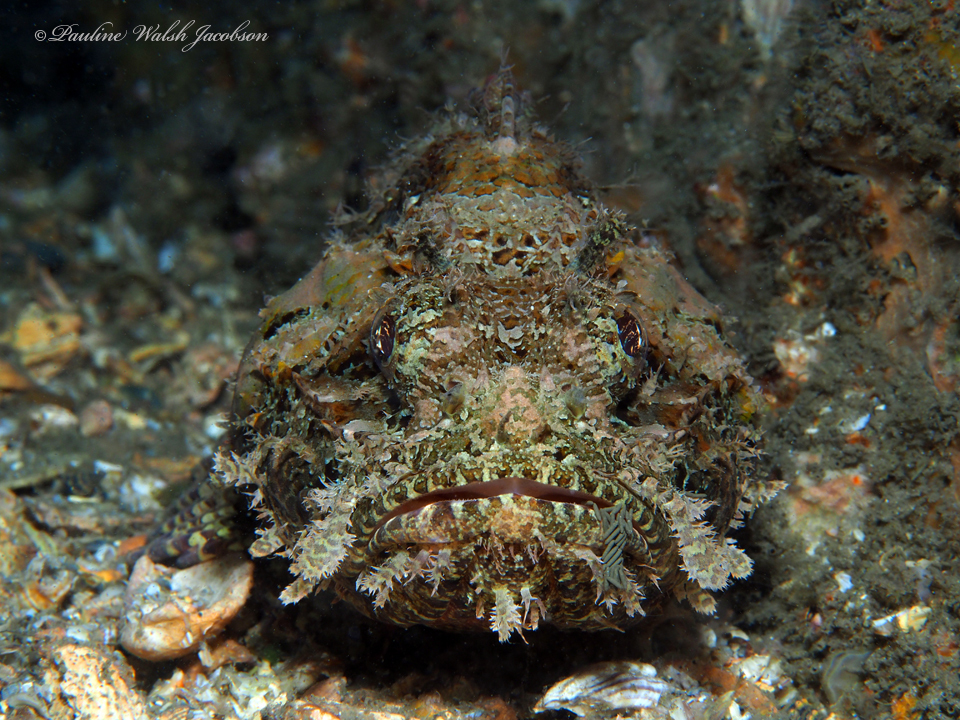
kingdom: Animalia
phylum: Chordata
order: Scorpaeniformes
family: Scorpaenidae
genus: Scorpaena
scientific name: Scorpaena plumieri
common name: Spotted scorpionfish
